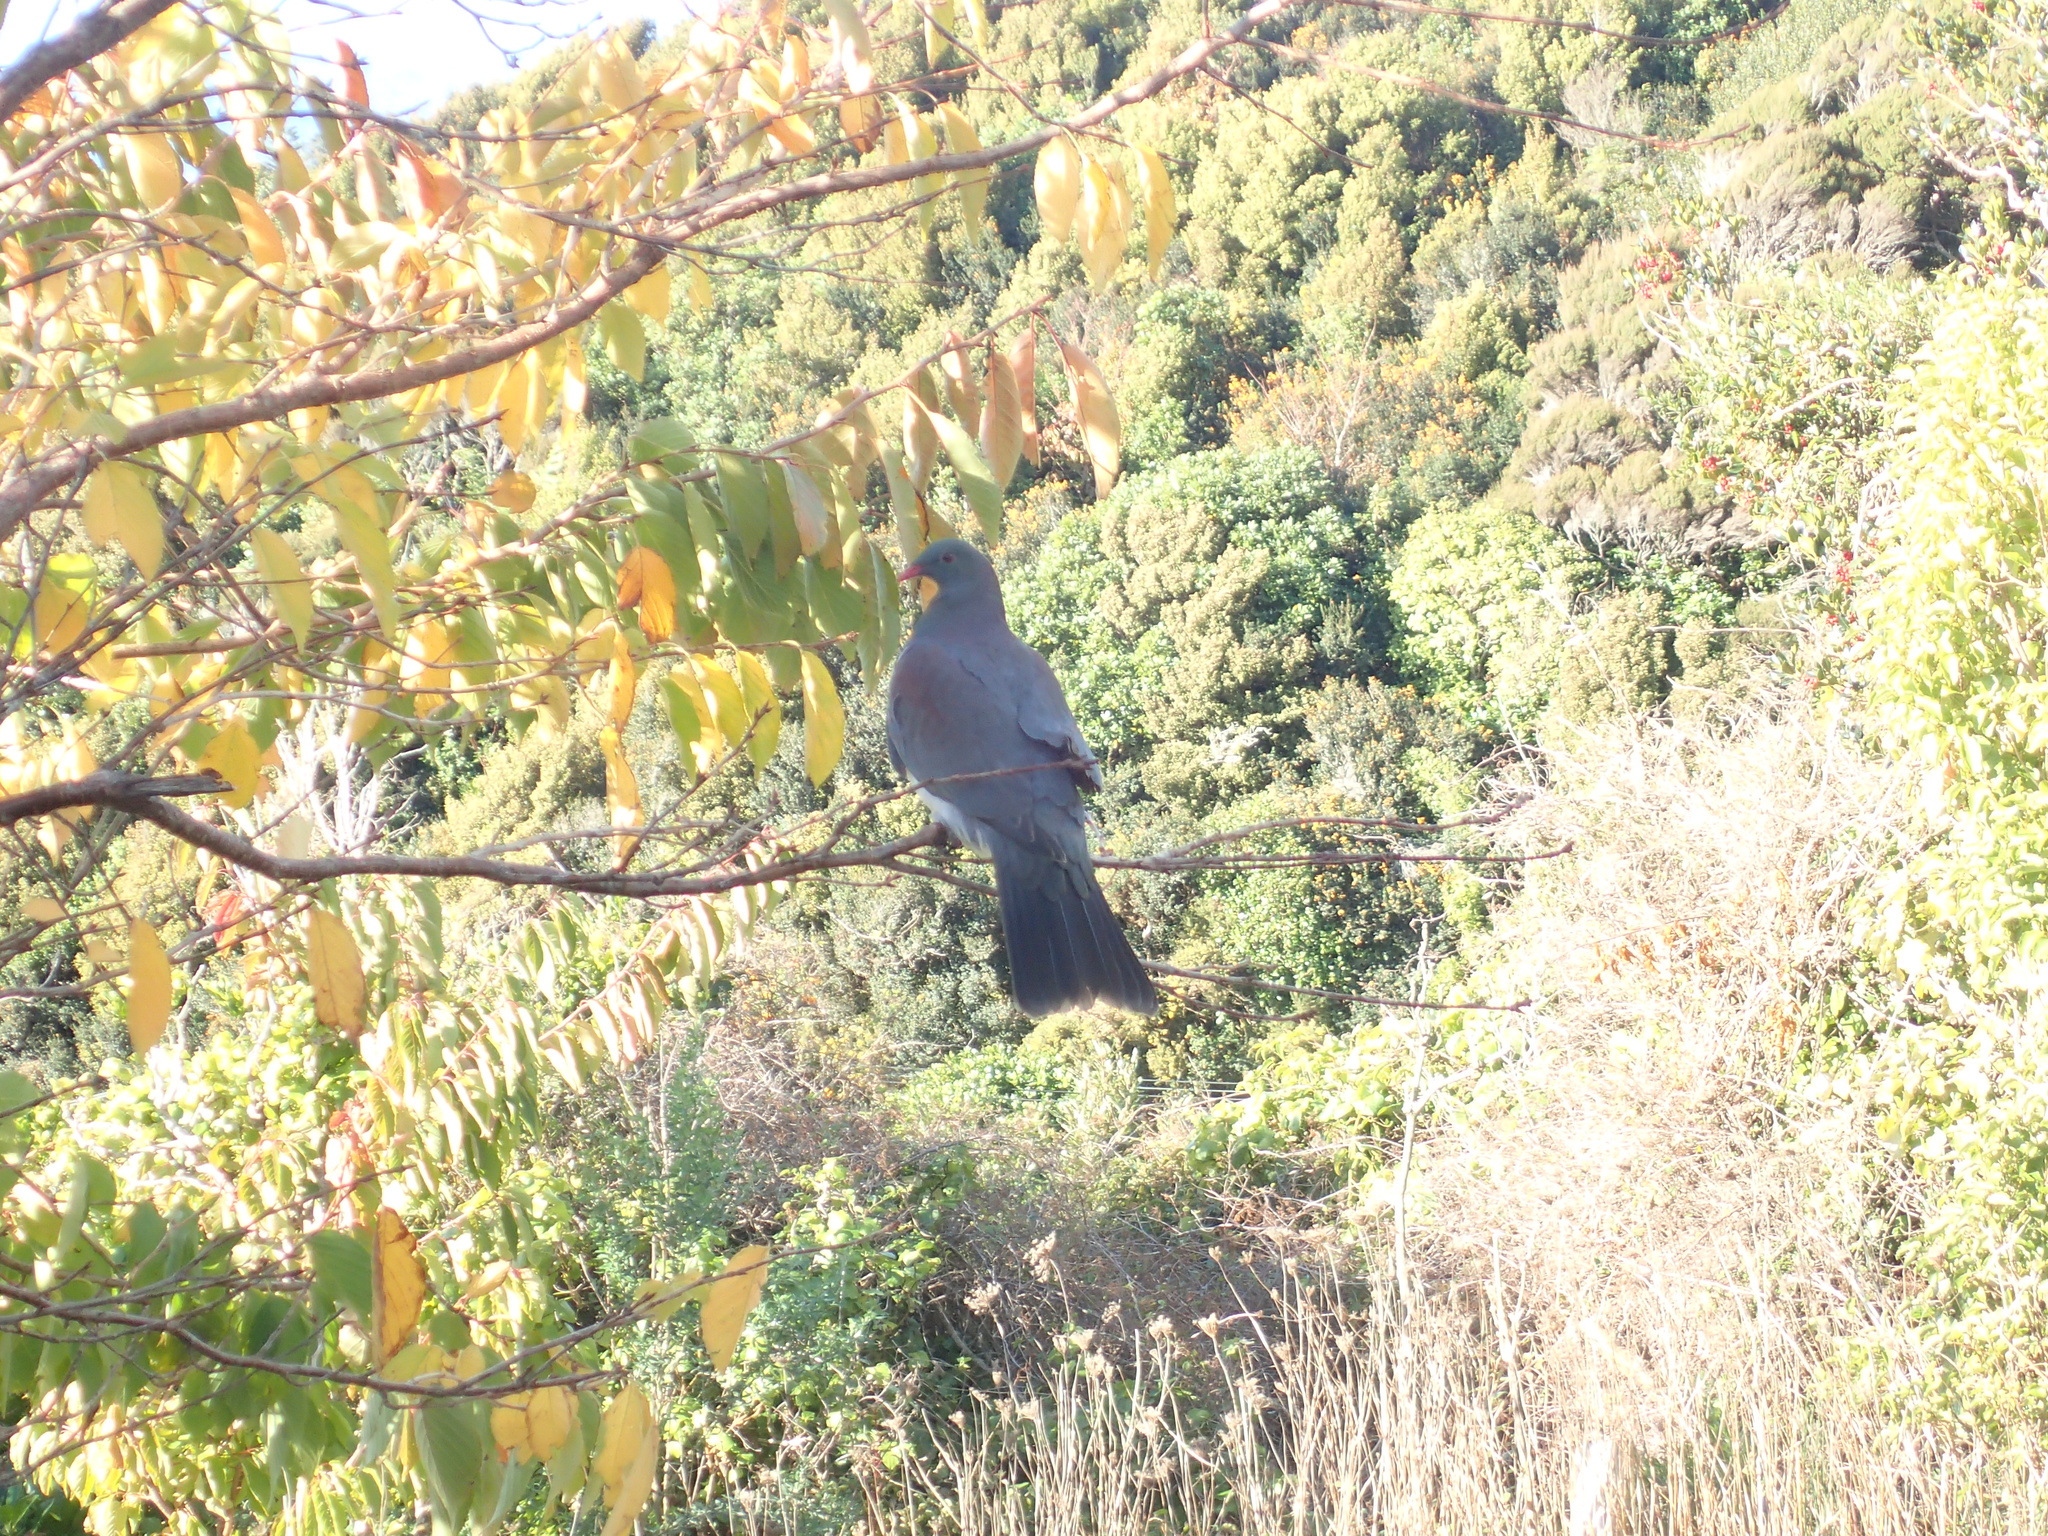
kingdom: Animalia
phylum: Chordata
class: Aves
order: Columbiformes
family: Columbidae
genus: Hemiphaga
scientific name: Hemiphaga novaeseelandiae
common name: New zealand pigeon
